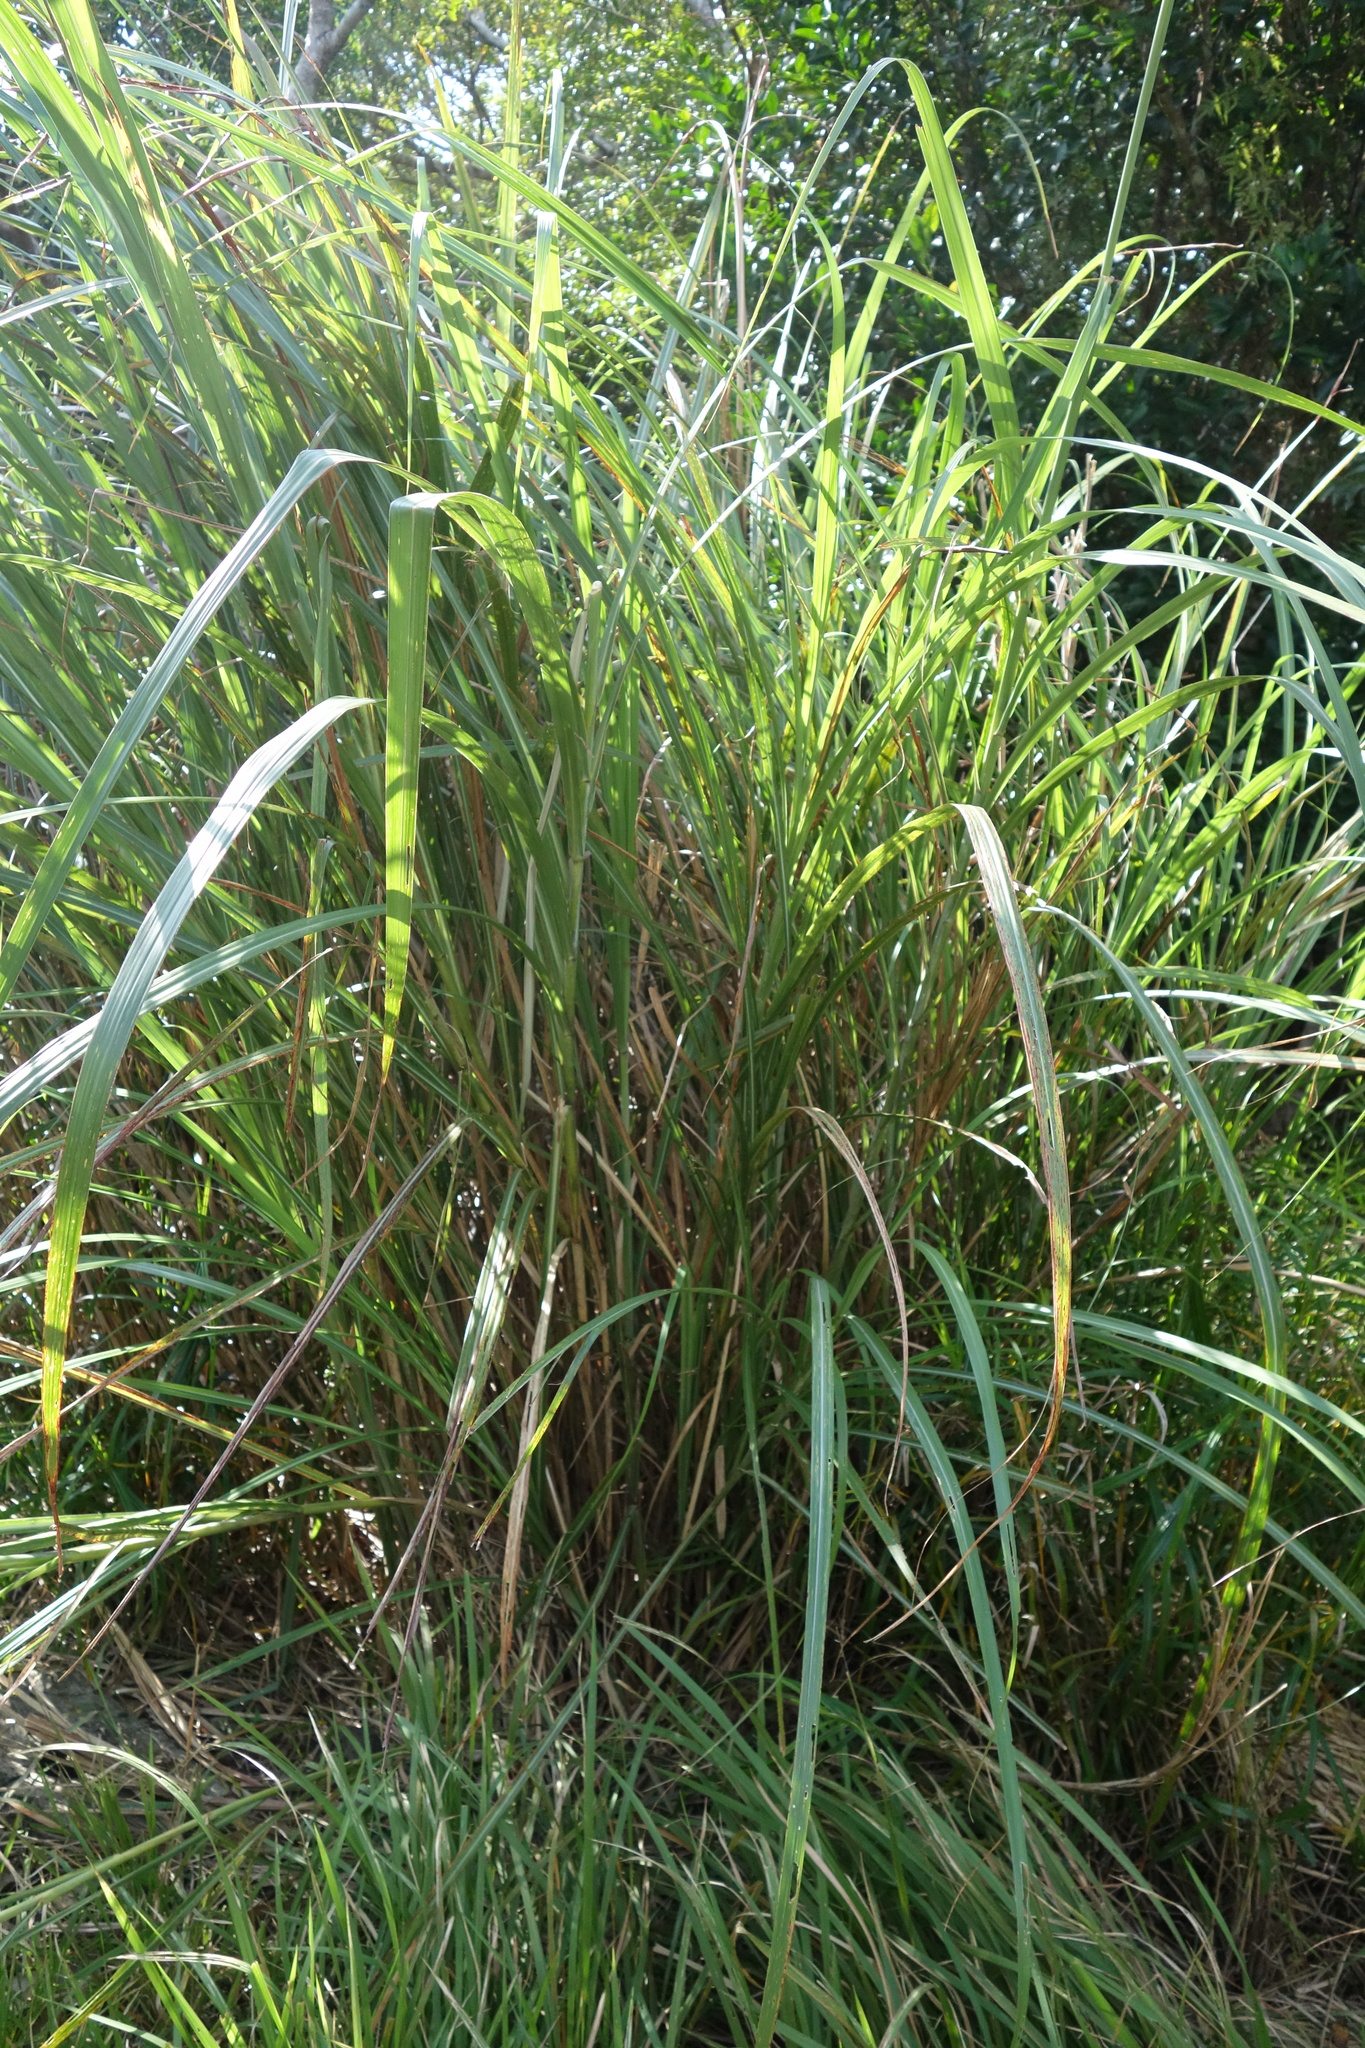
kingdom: Plantae
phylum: Tracheophyta
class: Liliopsida
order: Poales
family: Poaceae
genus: Miscanthus
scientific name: Miscanthus sinensis
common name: Chinese silvergrass
